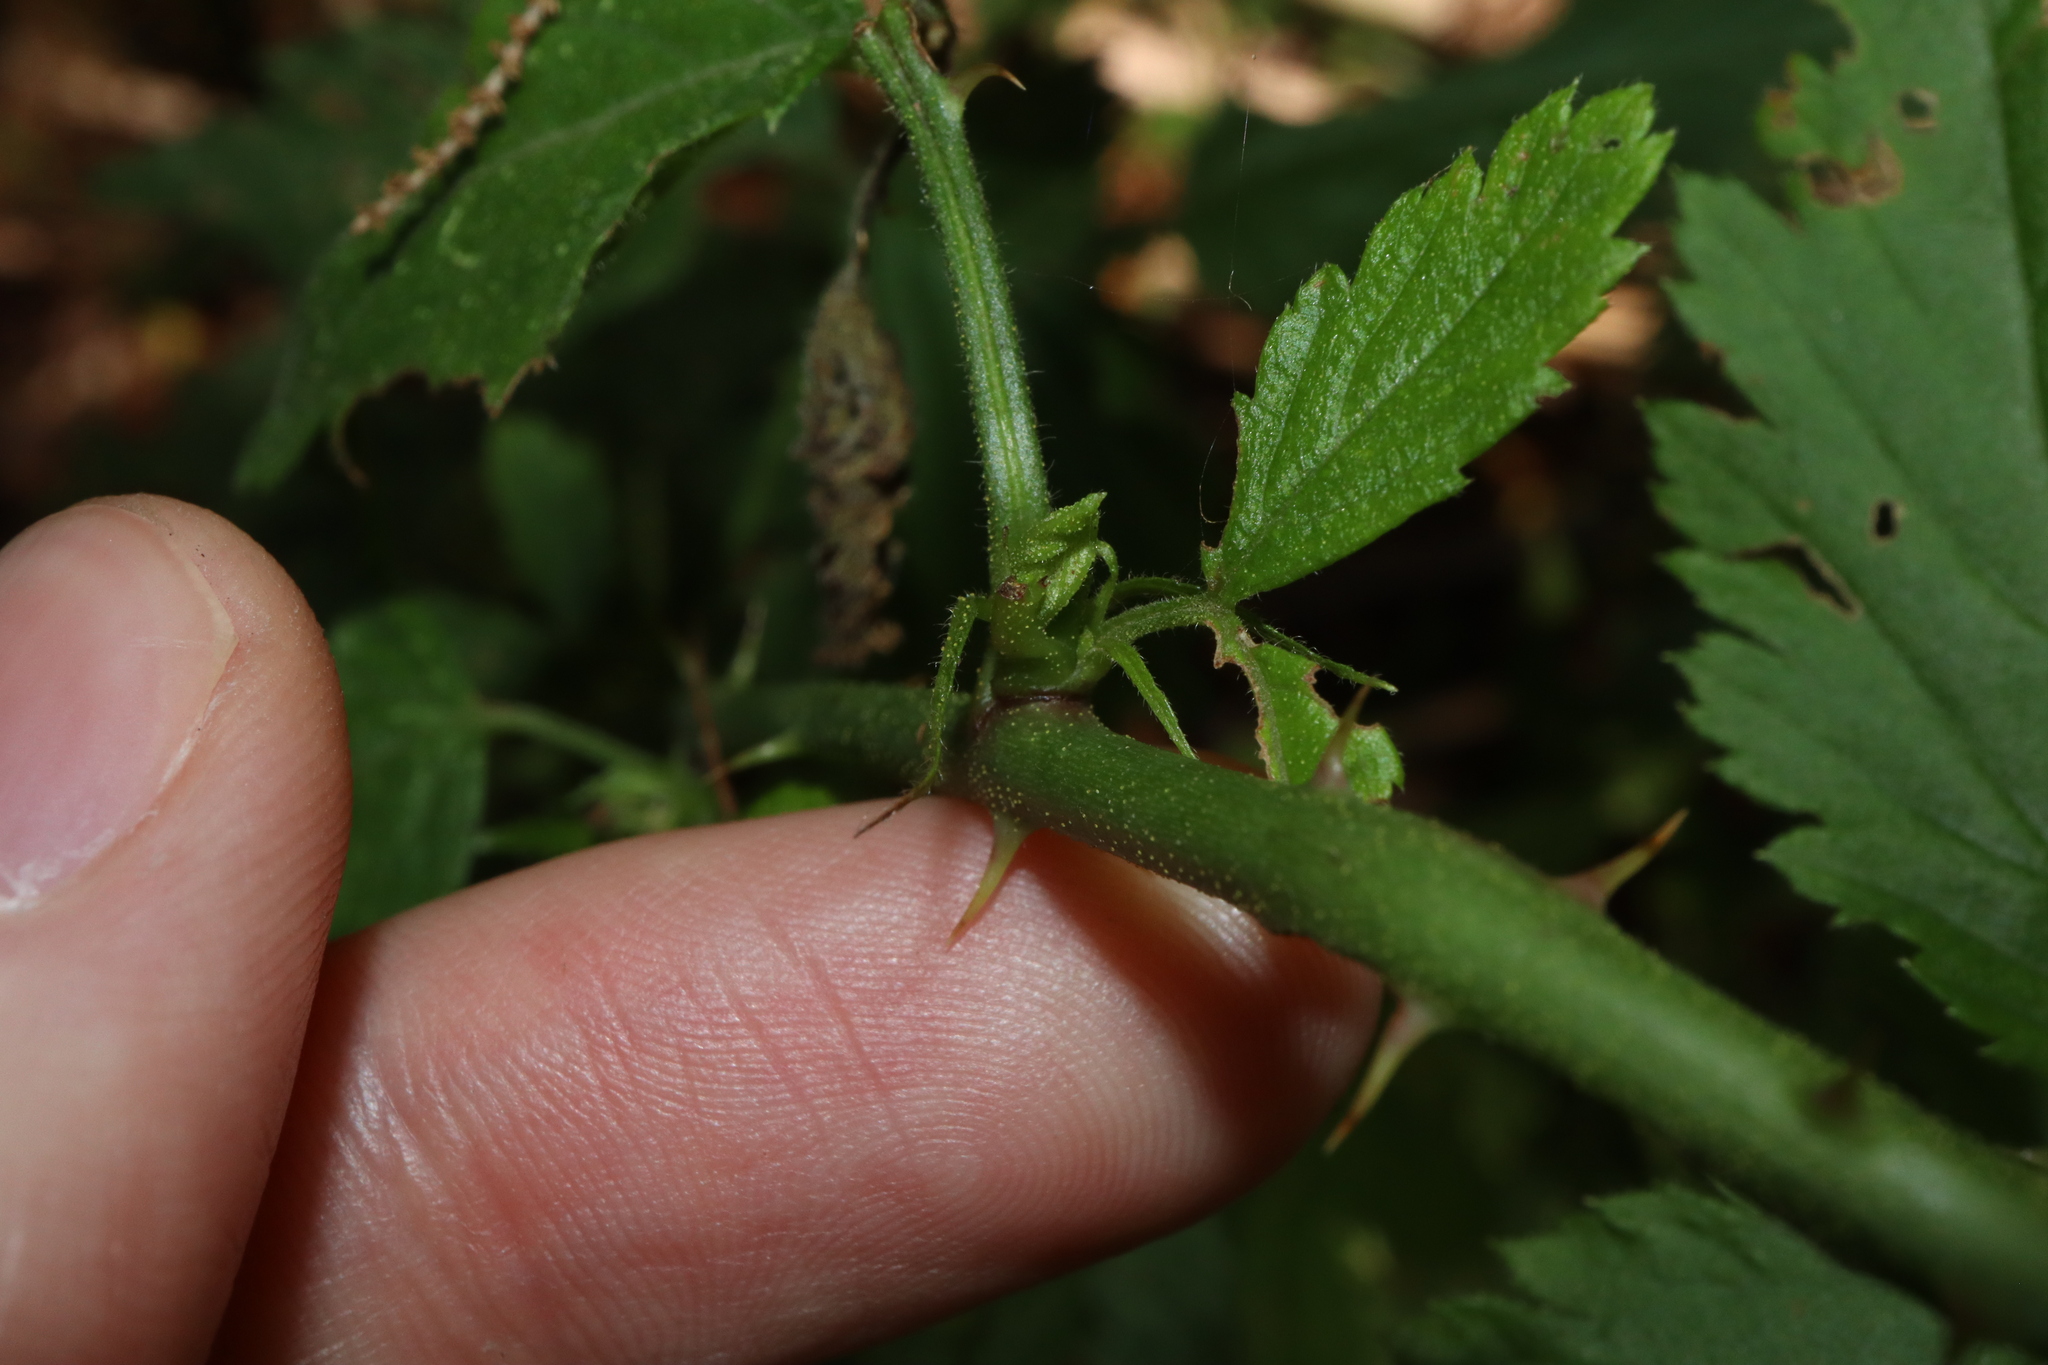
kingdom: Plantae
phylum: Tracheophyta
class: Magnoliopsida
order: Rosales
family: Rosaceae
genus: Rubus
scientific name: Rubus rosifolius
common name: Roseleaf raspberry
